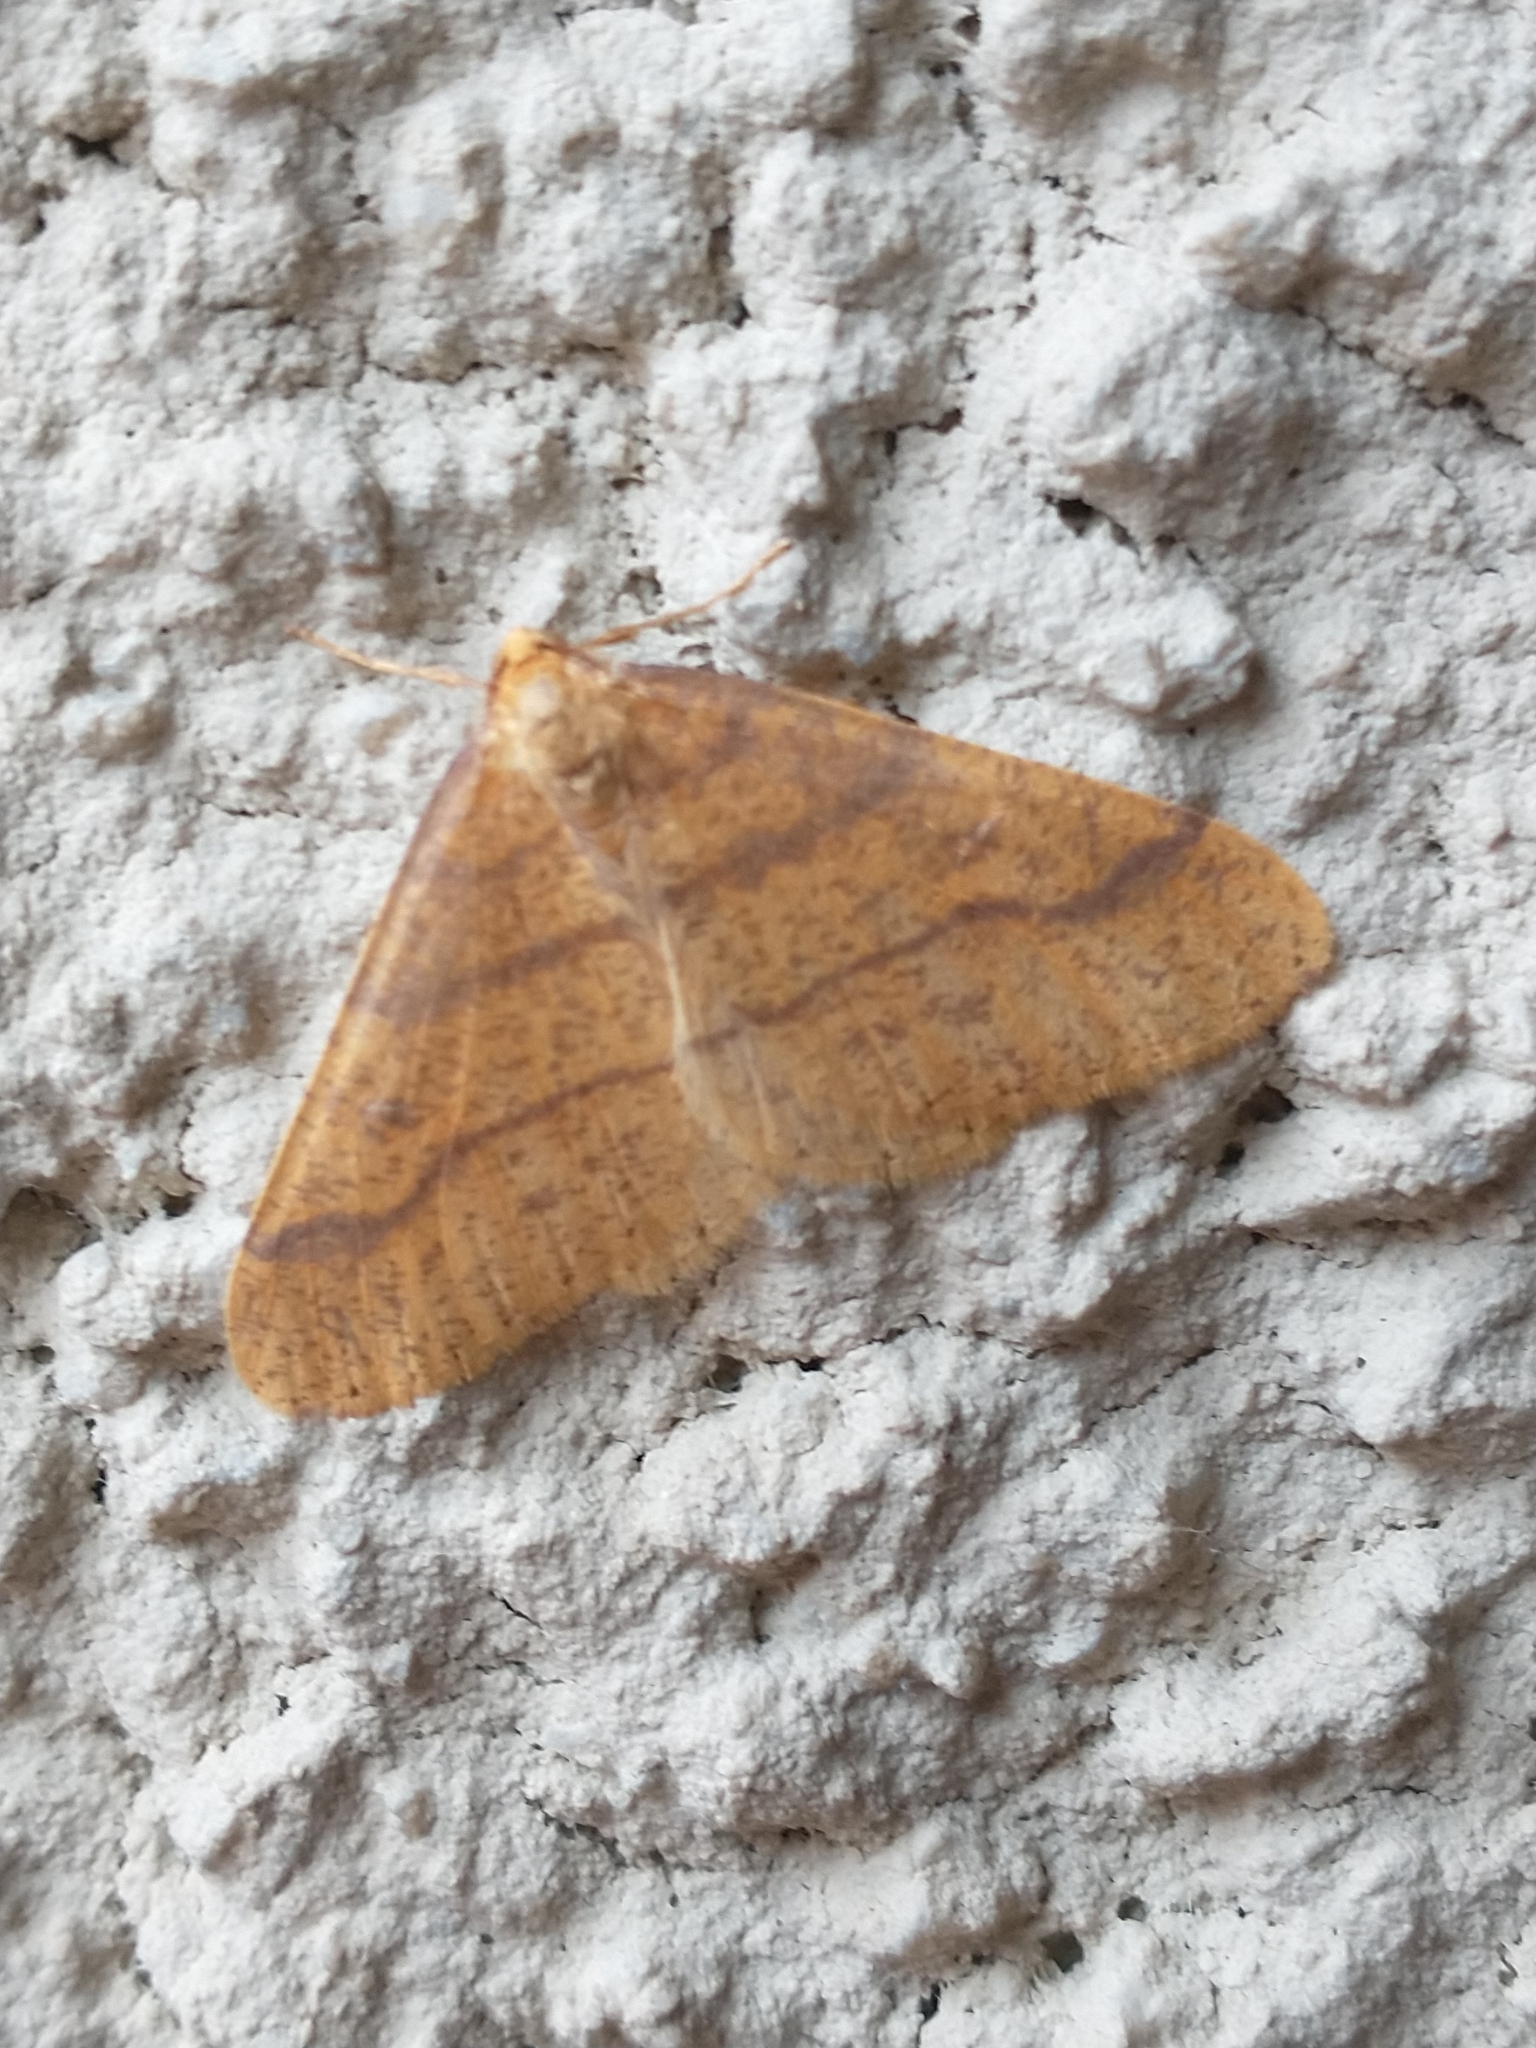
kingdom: Animalia
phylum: Arthropoda
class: Insecta
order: Lepidoptera
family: Geometridae
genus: Agriopis
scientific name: Agriopis aurantiaria
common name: Scarce umber
